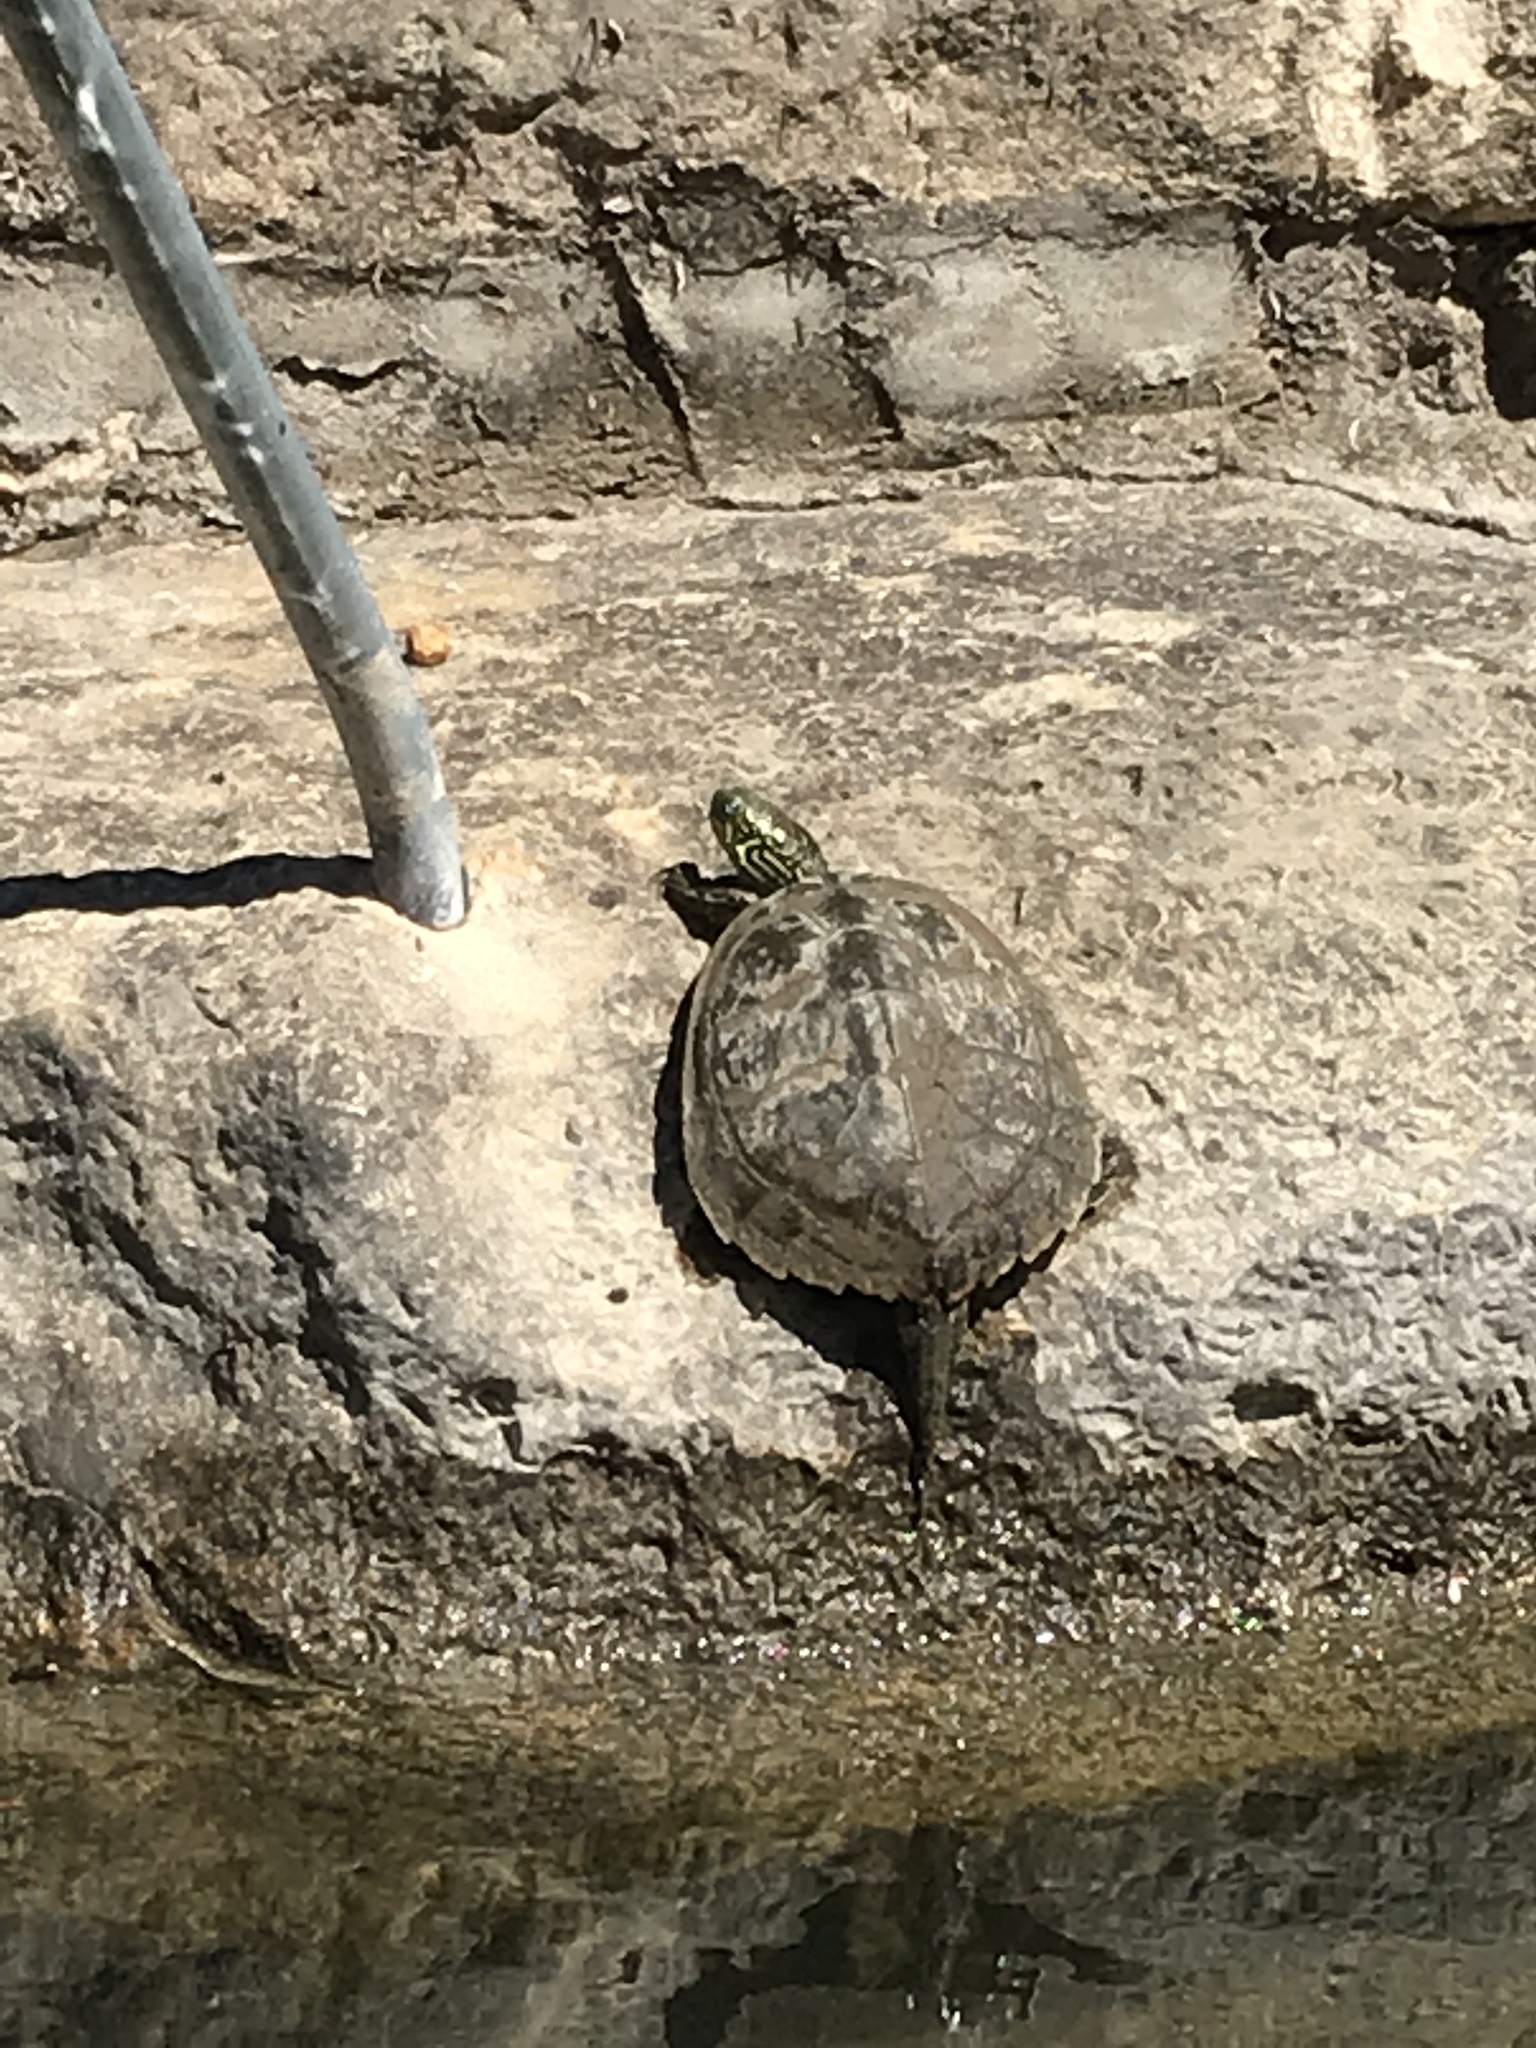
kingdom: Animalia
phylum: Chordata
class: Testudines
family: Emydidae
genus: Pseudemys
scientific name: Pseudemys texana
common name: Texas river cooter
